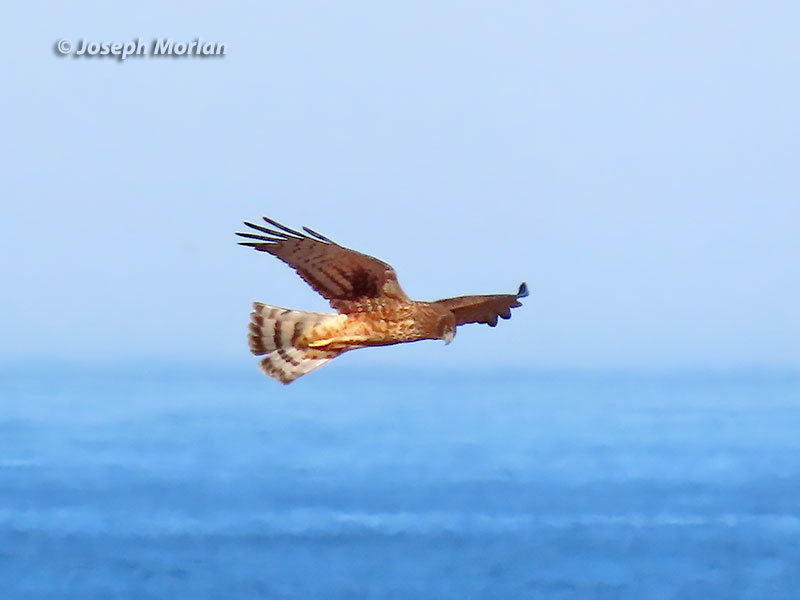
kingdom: Animalia
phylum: Chordata
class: Aves
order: Accipitriformes
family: Accipitridae
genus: Circus
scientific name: Circus cyaneus
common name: Hen harrier
